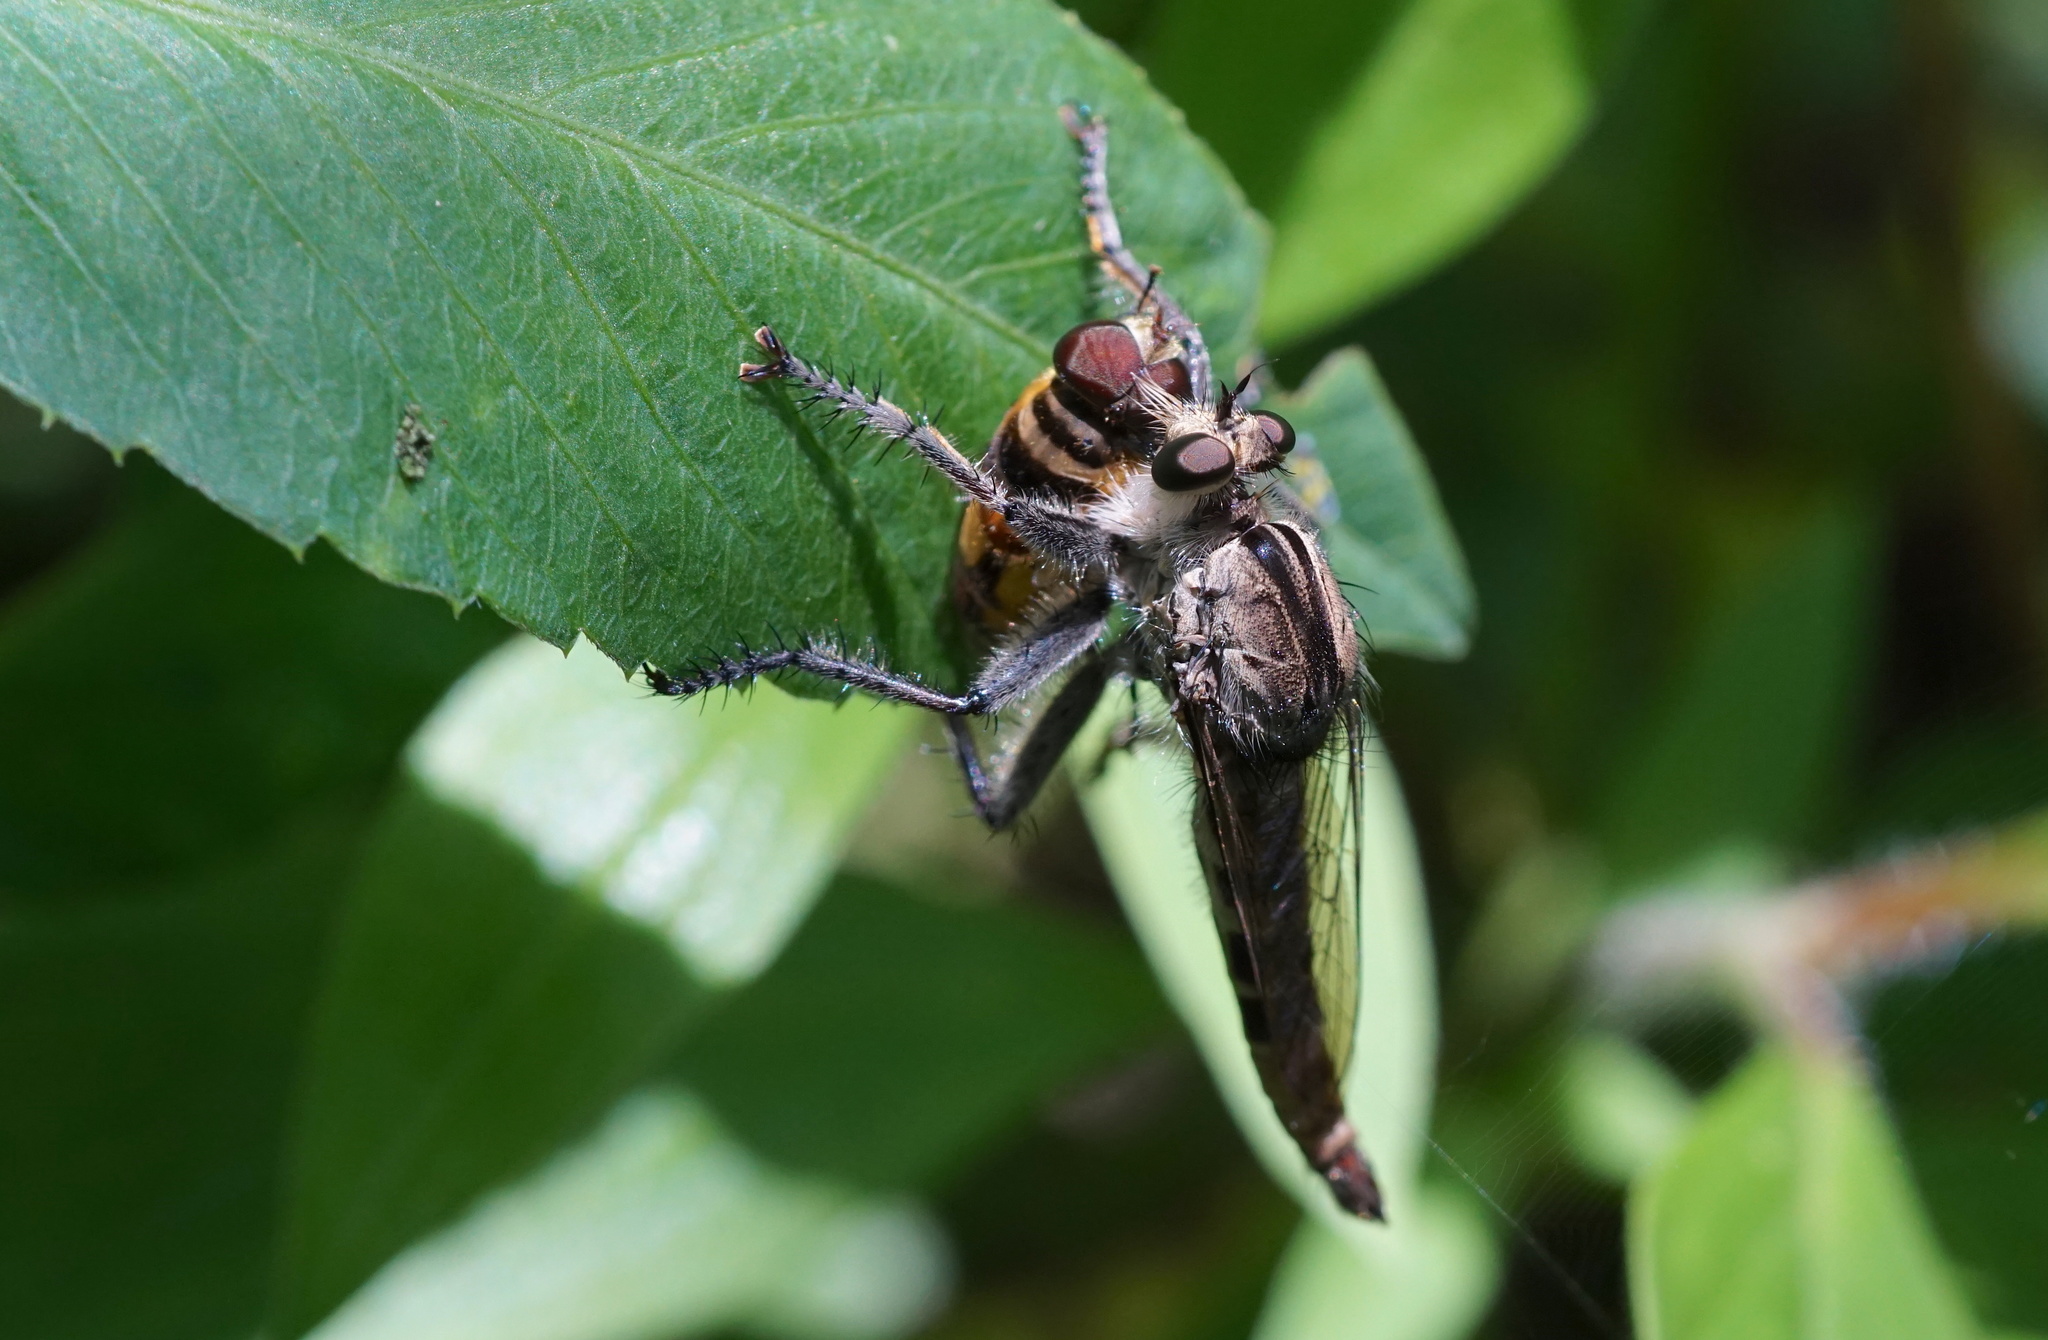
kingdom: Animalia
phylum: Arthropoda
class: Insecta
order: Diptera
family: Asilidae
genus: Triorla
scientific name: Triorla interrupta
